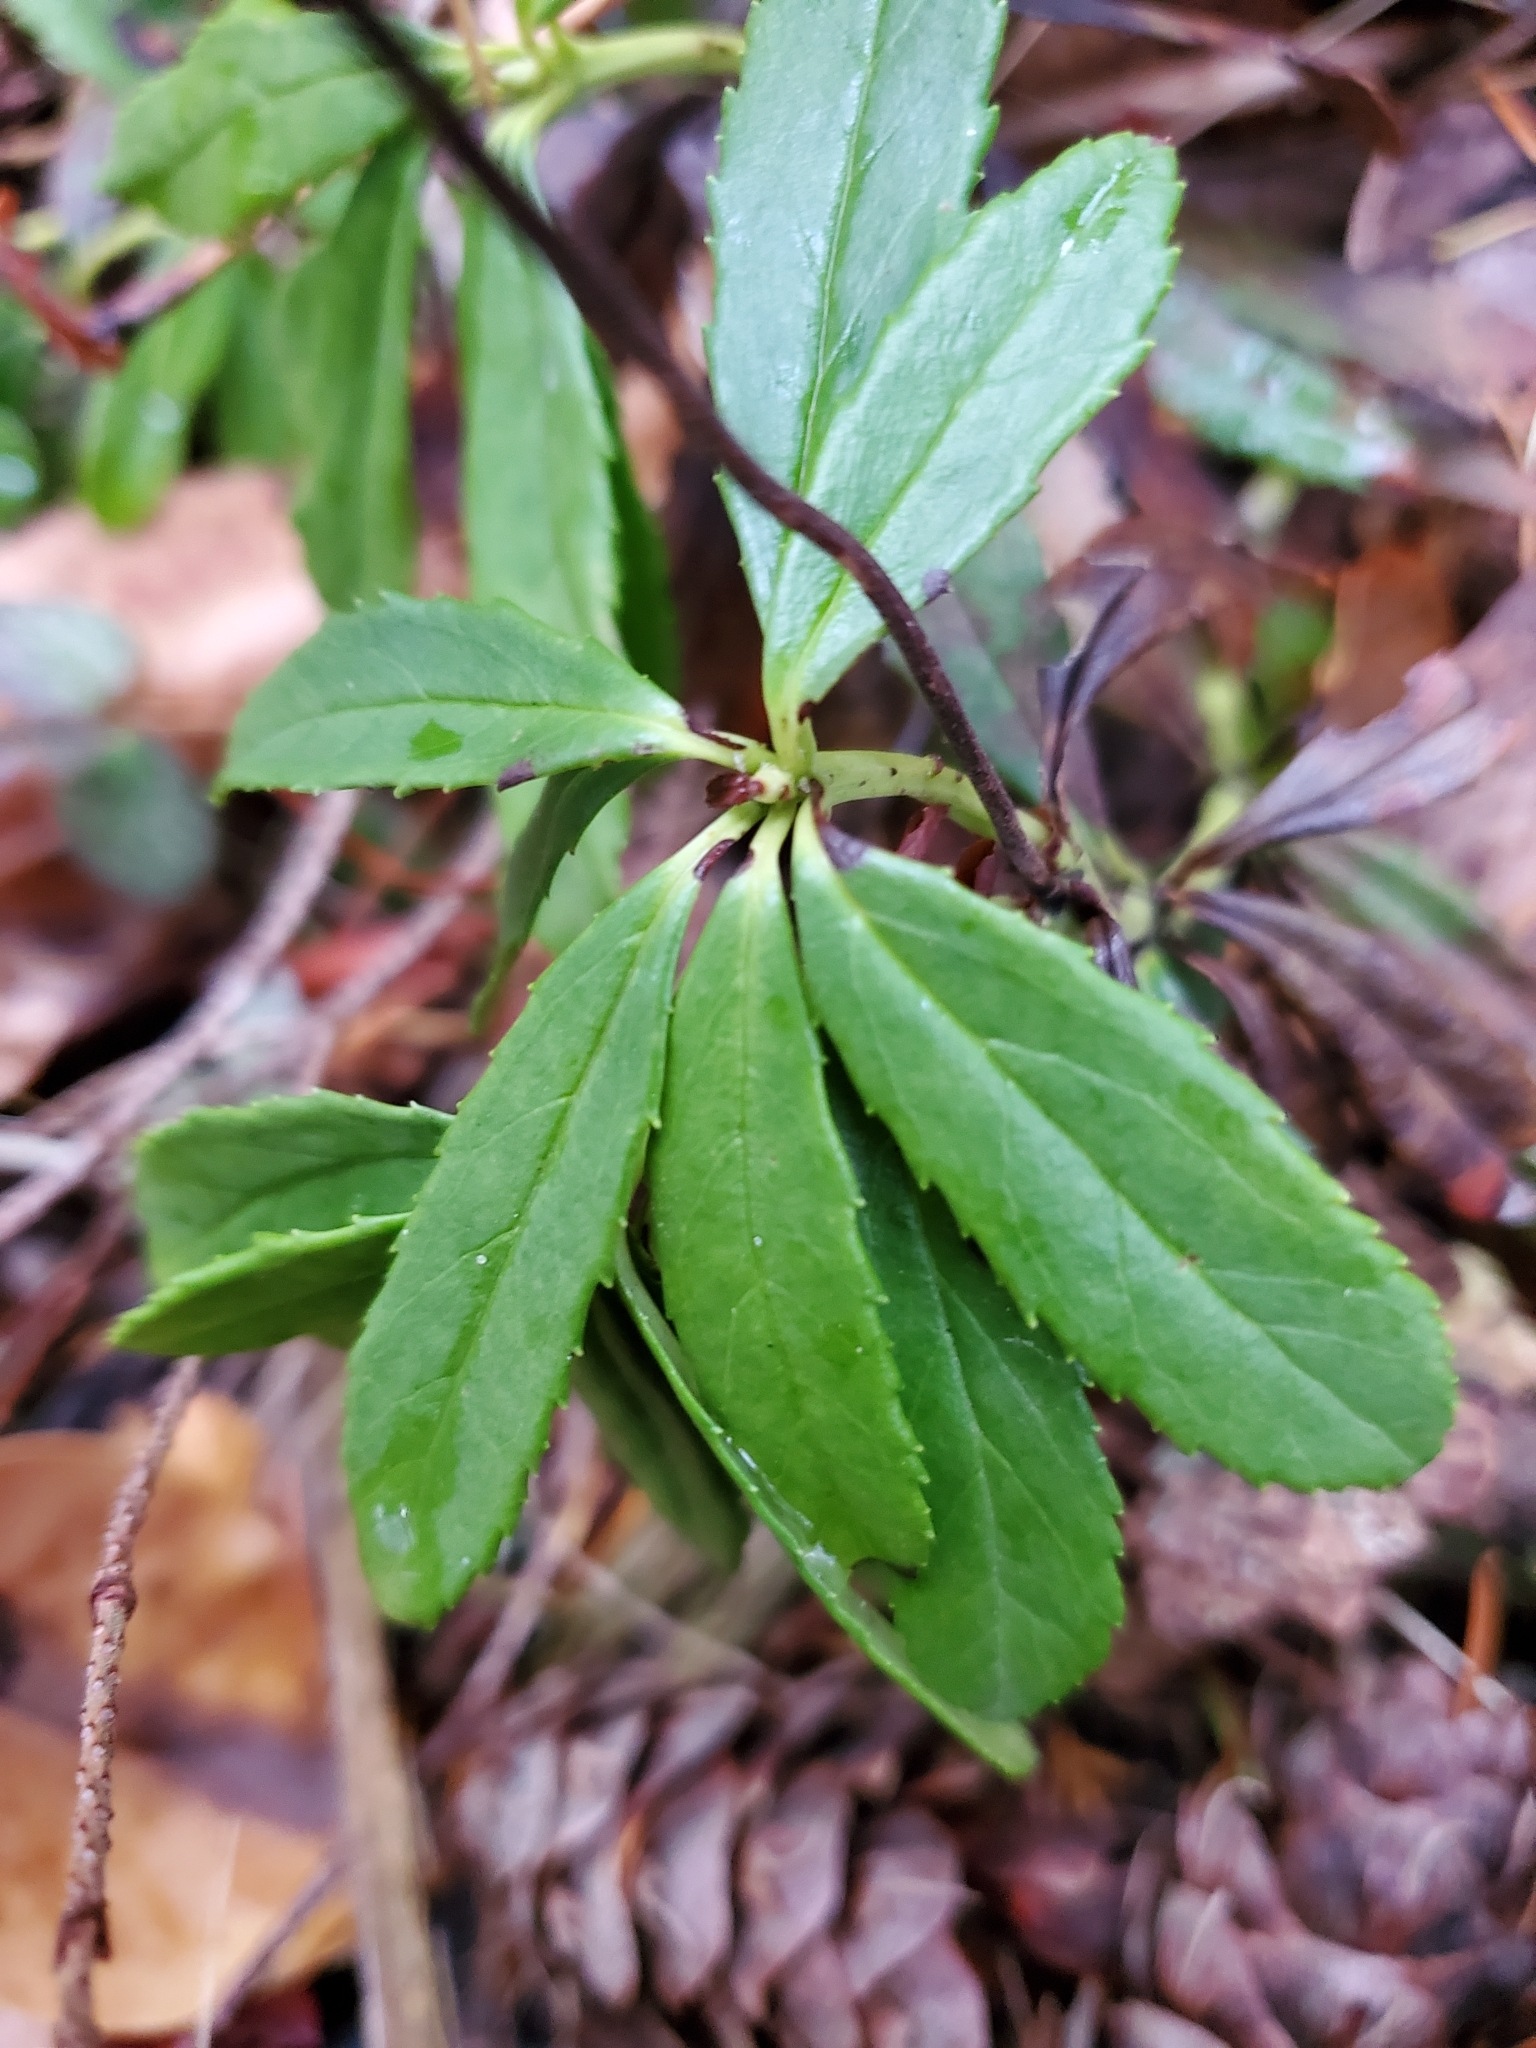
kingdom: Plantae
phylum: Tracheophyta
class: Magnoliopsida
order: Ericales
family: Ericaceae
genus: Chimaphila
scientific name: Chimaphila umbellata
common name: Pipsissewa
